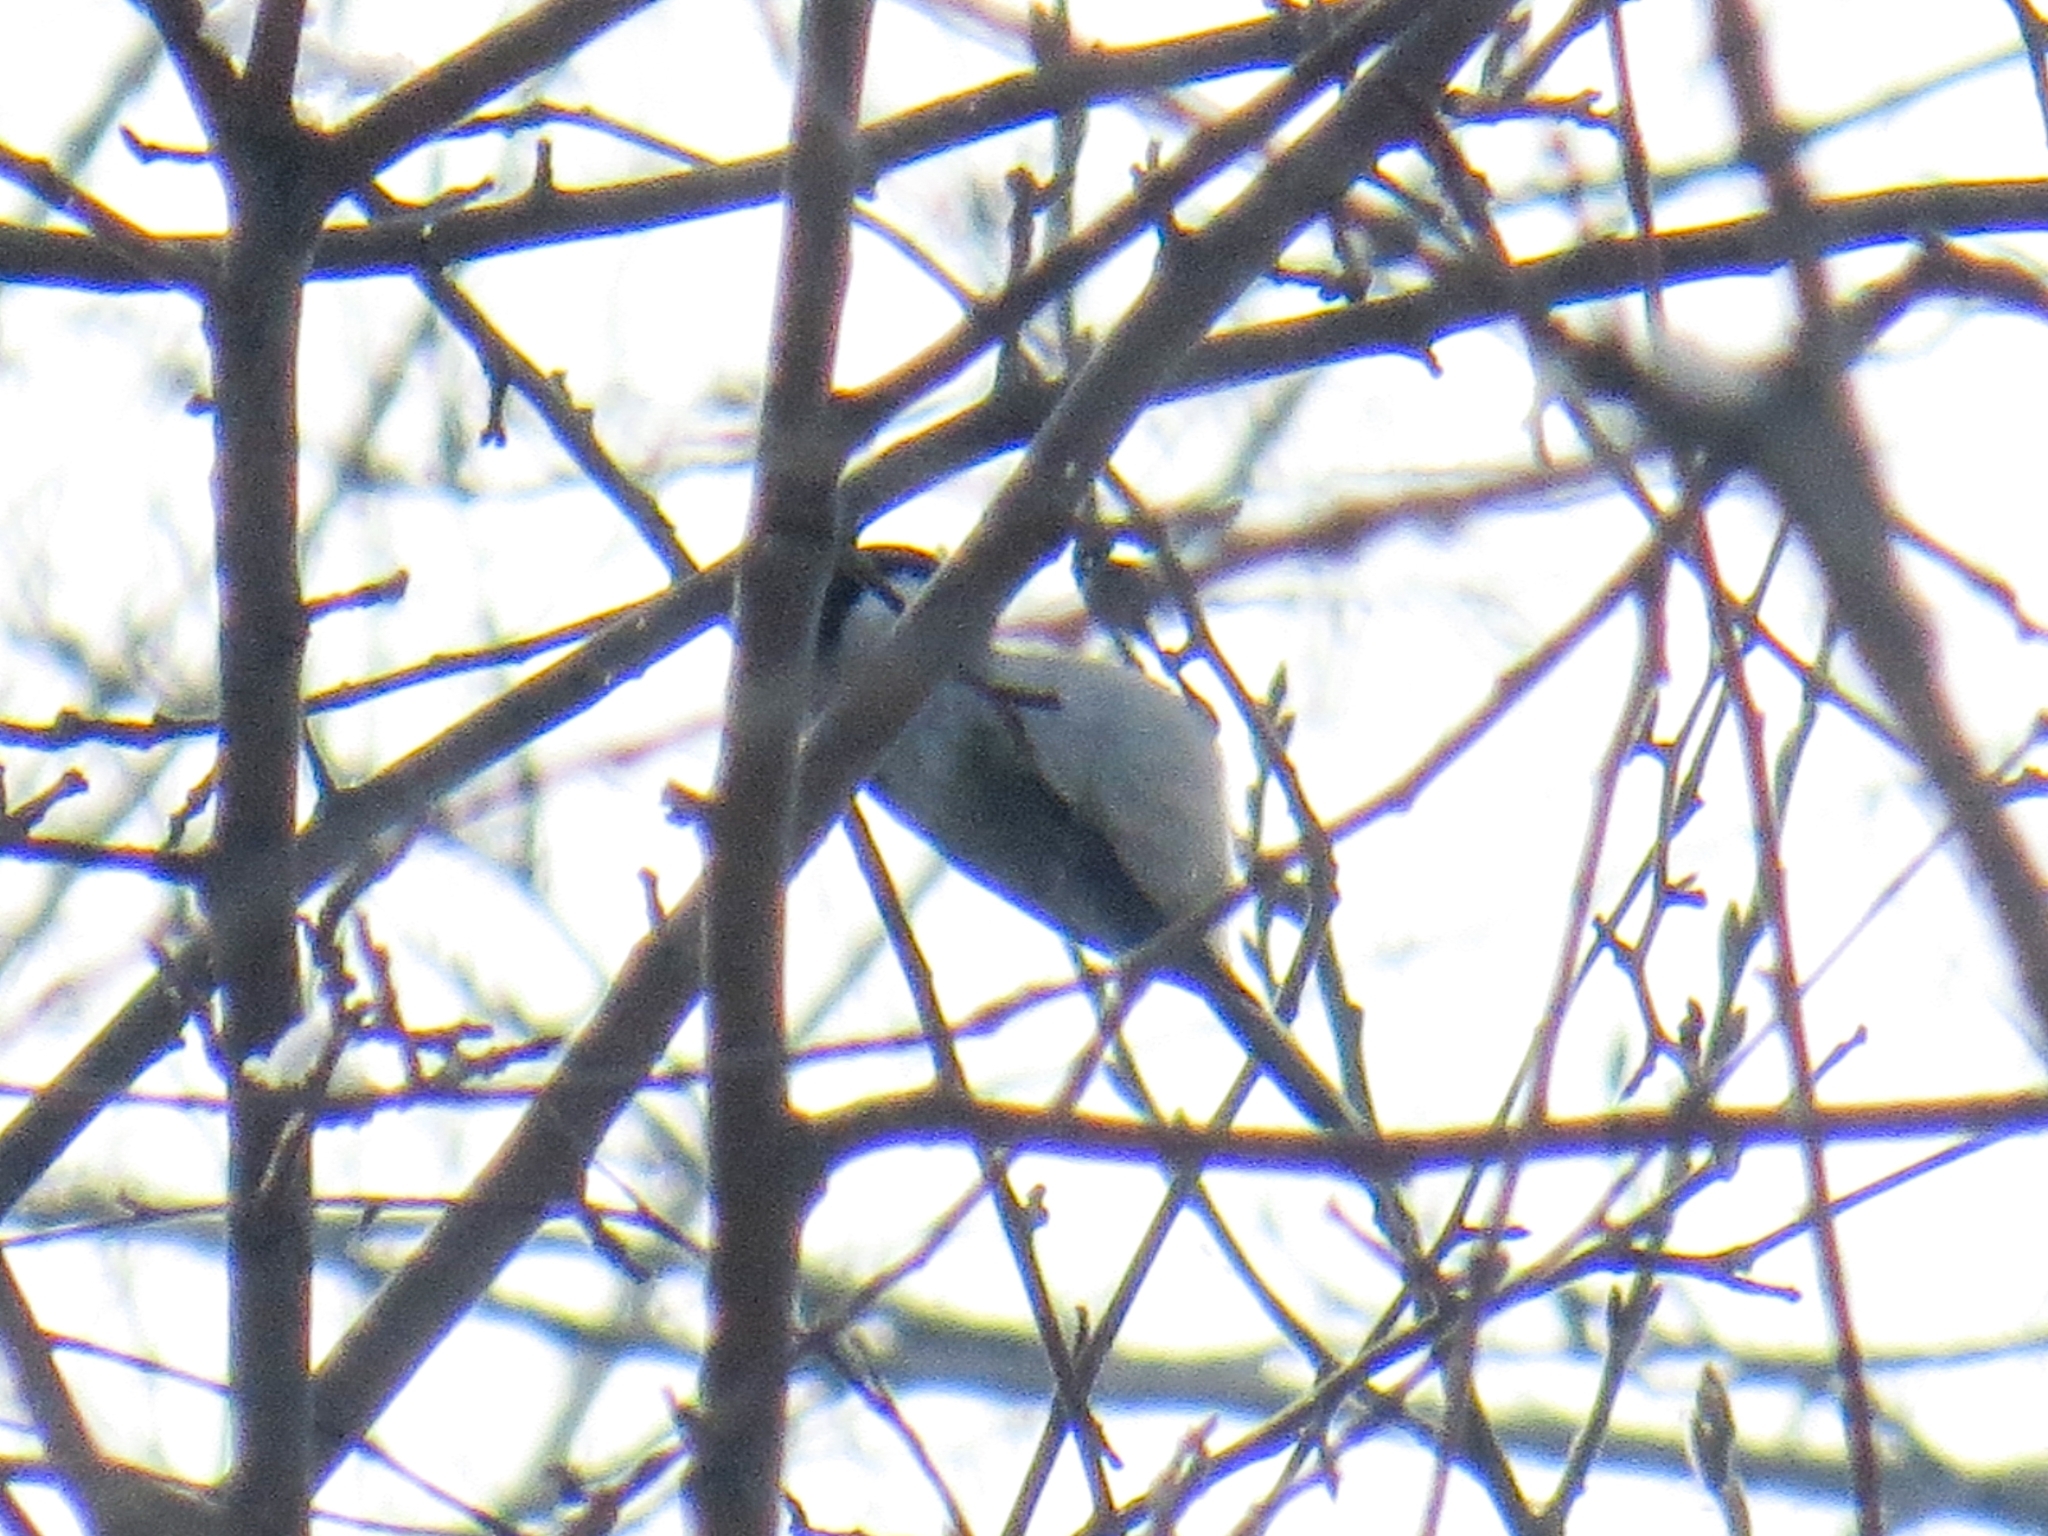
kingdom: Animalia
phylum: Chordata
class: Aves
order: Passeriformes
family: Paridae
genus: Poecile
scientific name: Poecile montanus
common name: Willow tit
